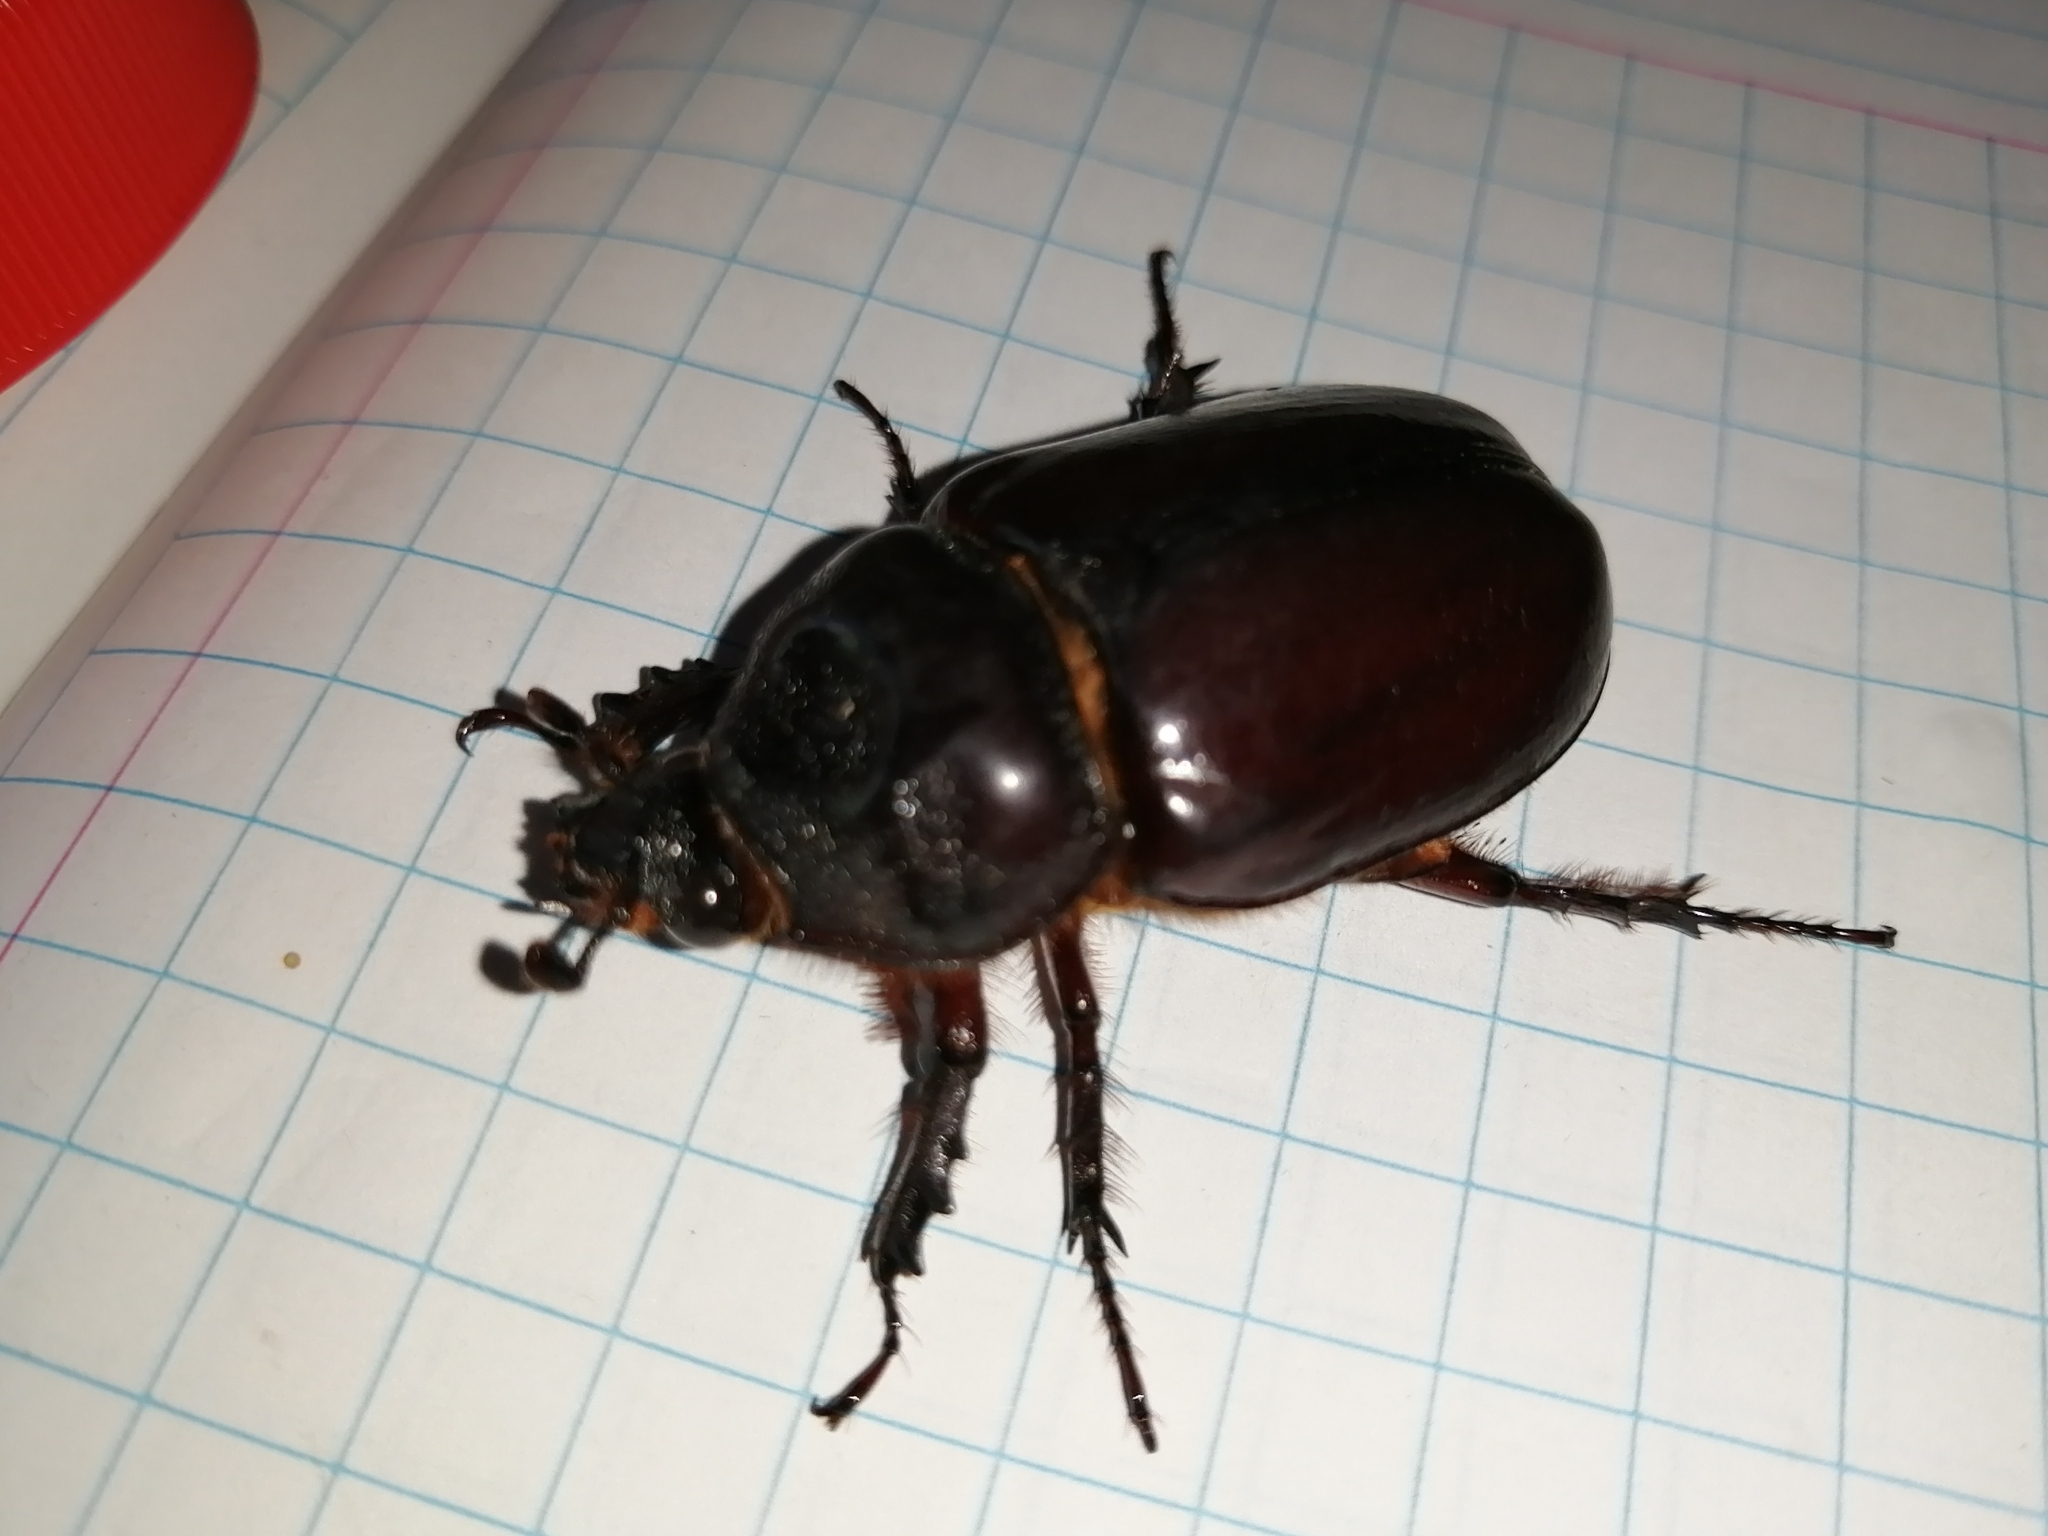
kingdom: Animalia
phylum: Arthropoda
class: Insecta
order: Coleoptera
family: Scarabaeidae
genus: Strategus
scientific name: Strategus aloeus
